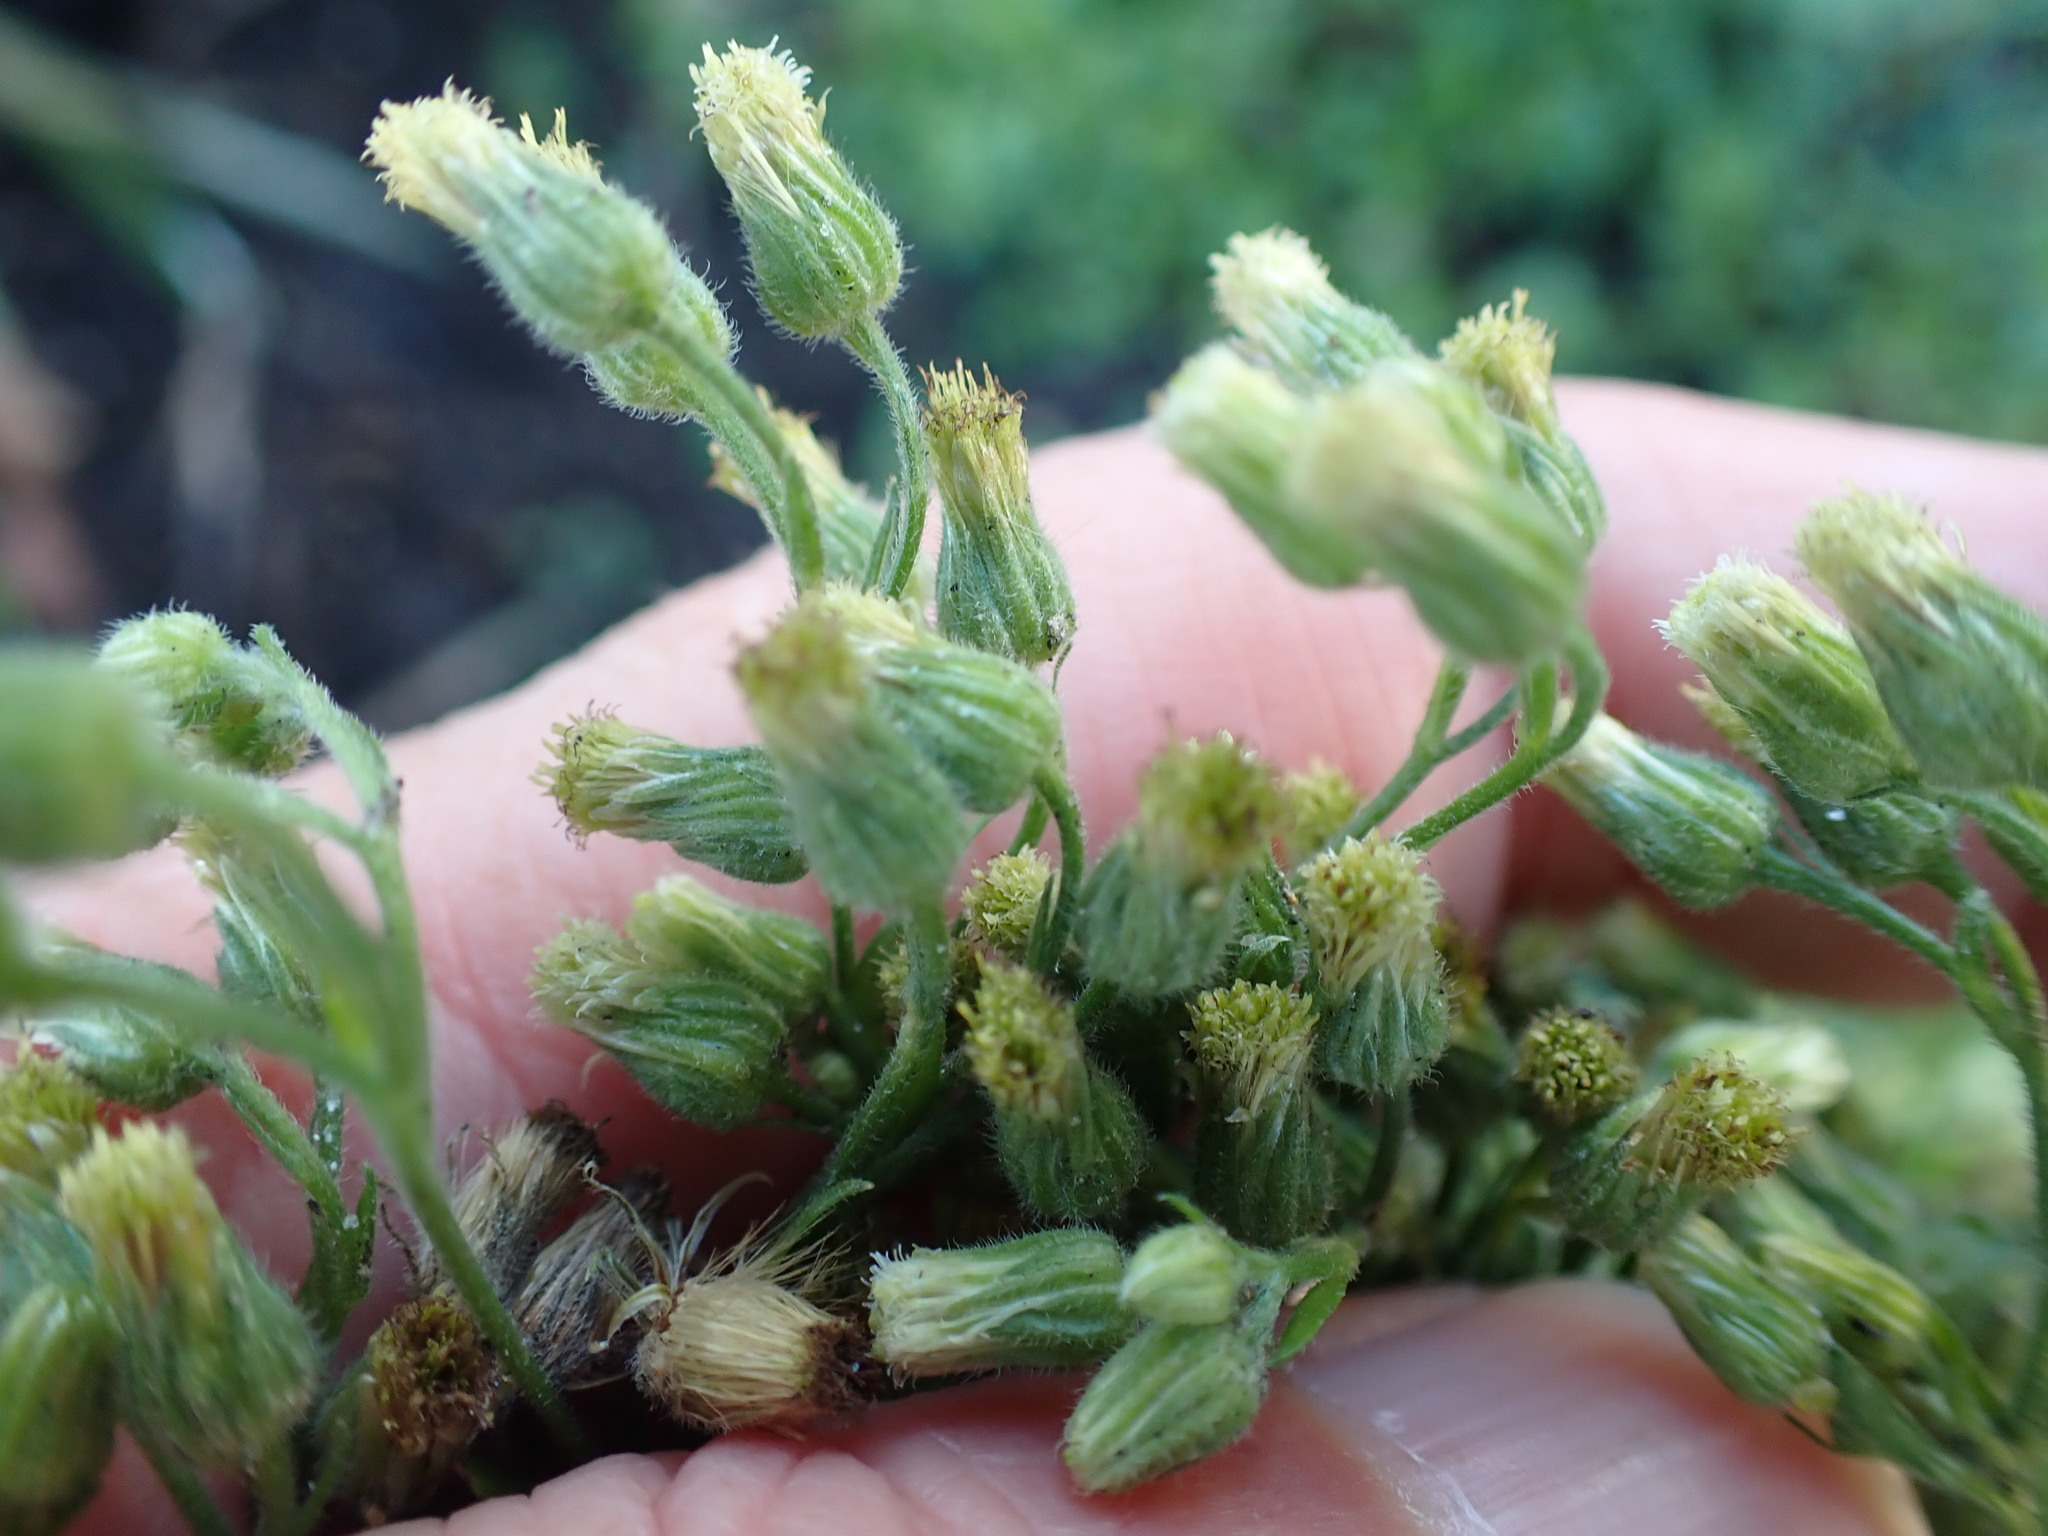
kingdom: Plantae
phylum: Tracheophyta
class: Magnoliopsida
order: Asterales
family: Asteraceae
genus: Erigeron
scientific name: Erigeron sumatrensis
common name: Daisy
